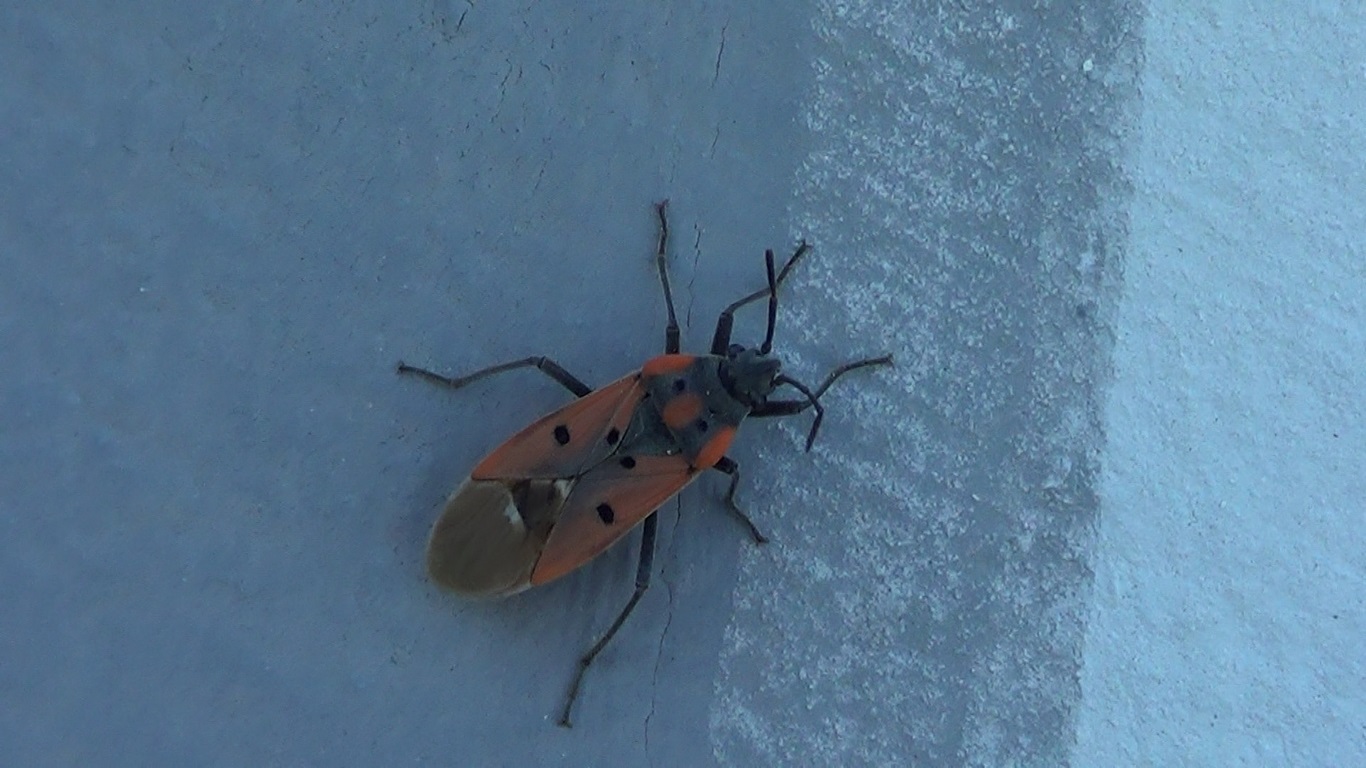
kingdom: Animalia
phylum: Arthropoda
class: Insecta
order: Hemiptera
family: Lygaeidae
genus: Lygaeus
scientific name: Lygaeus creticus
